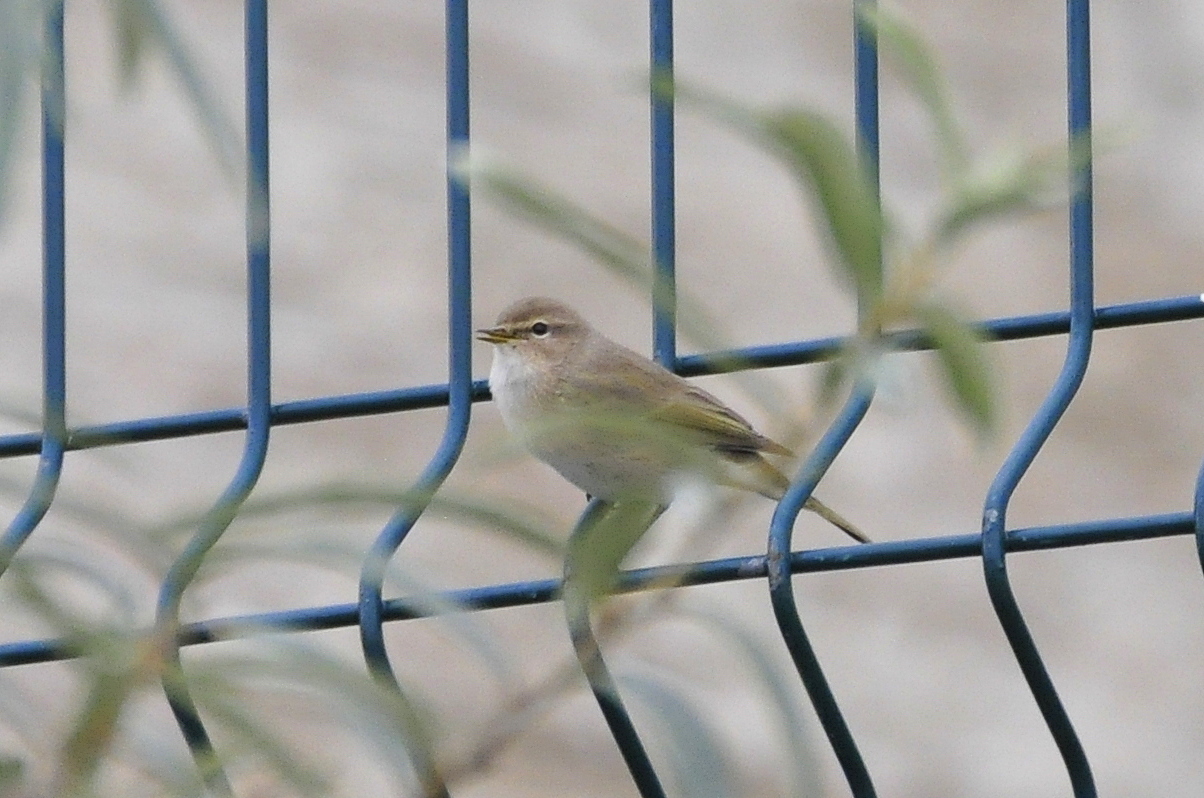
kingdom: Animalia
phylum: Chordata
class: Aves
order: Passeriformes
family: Phylloscopidae
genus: Phylloscopus
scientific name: Phylloscopus collybita
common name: Common chiffchaff
